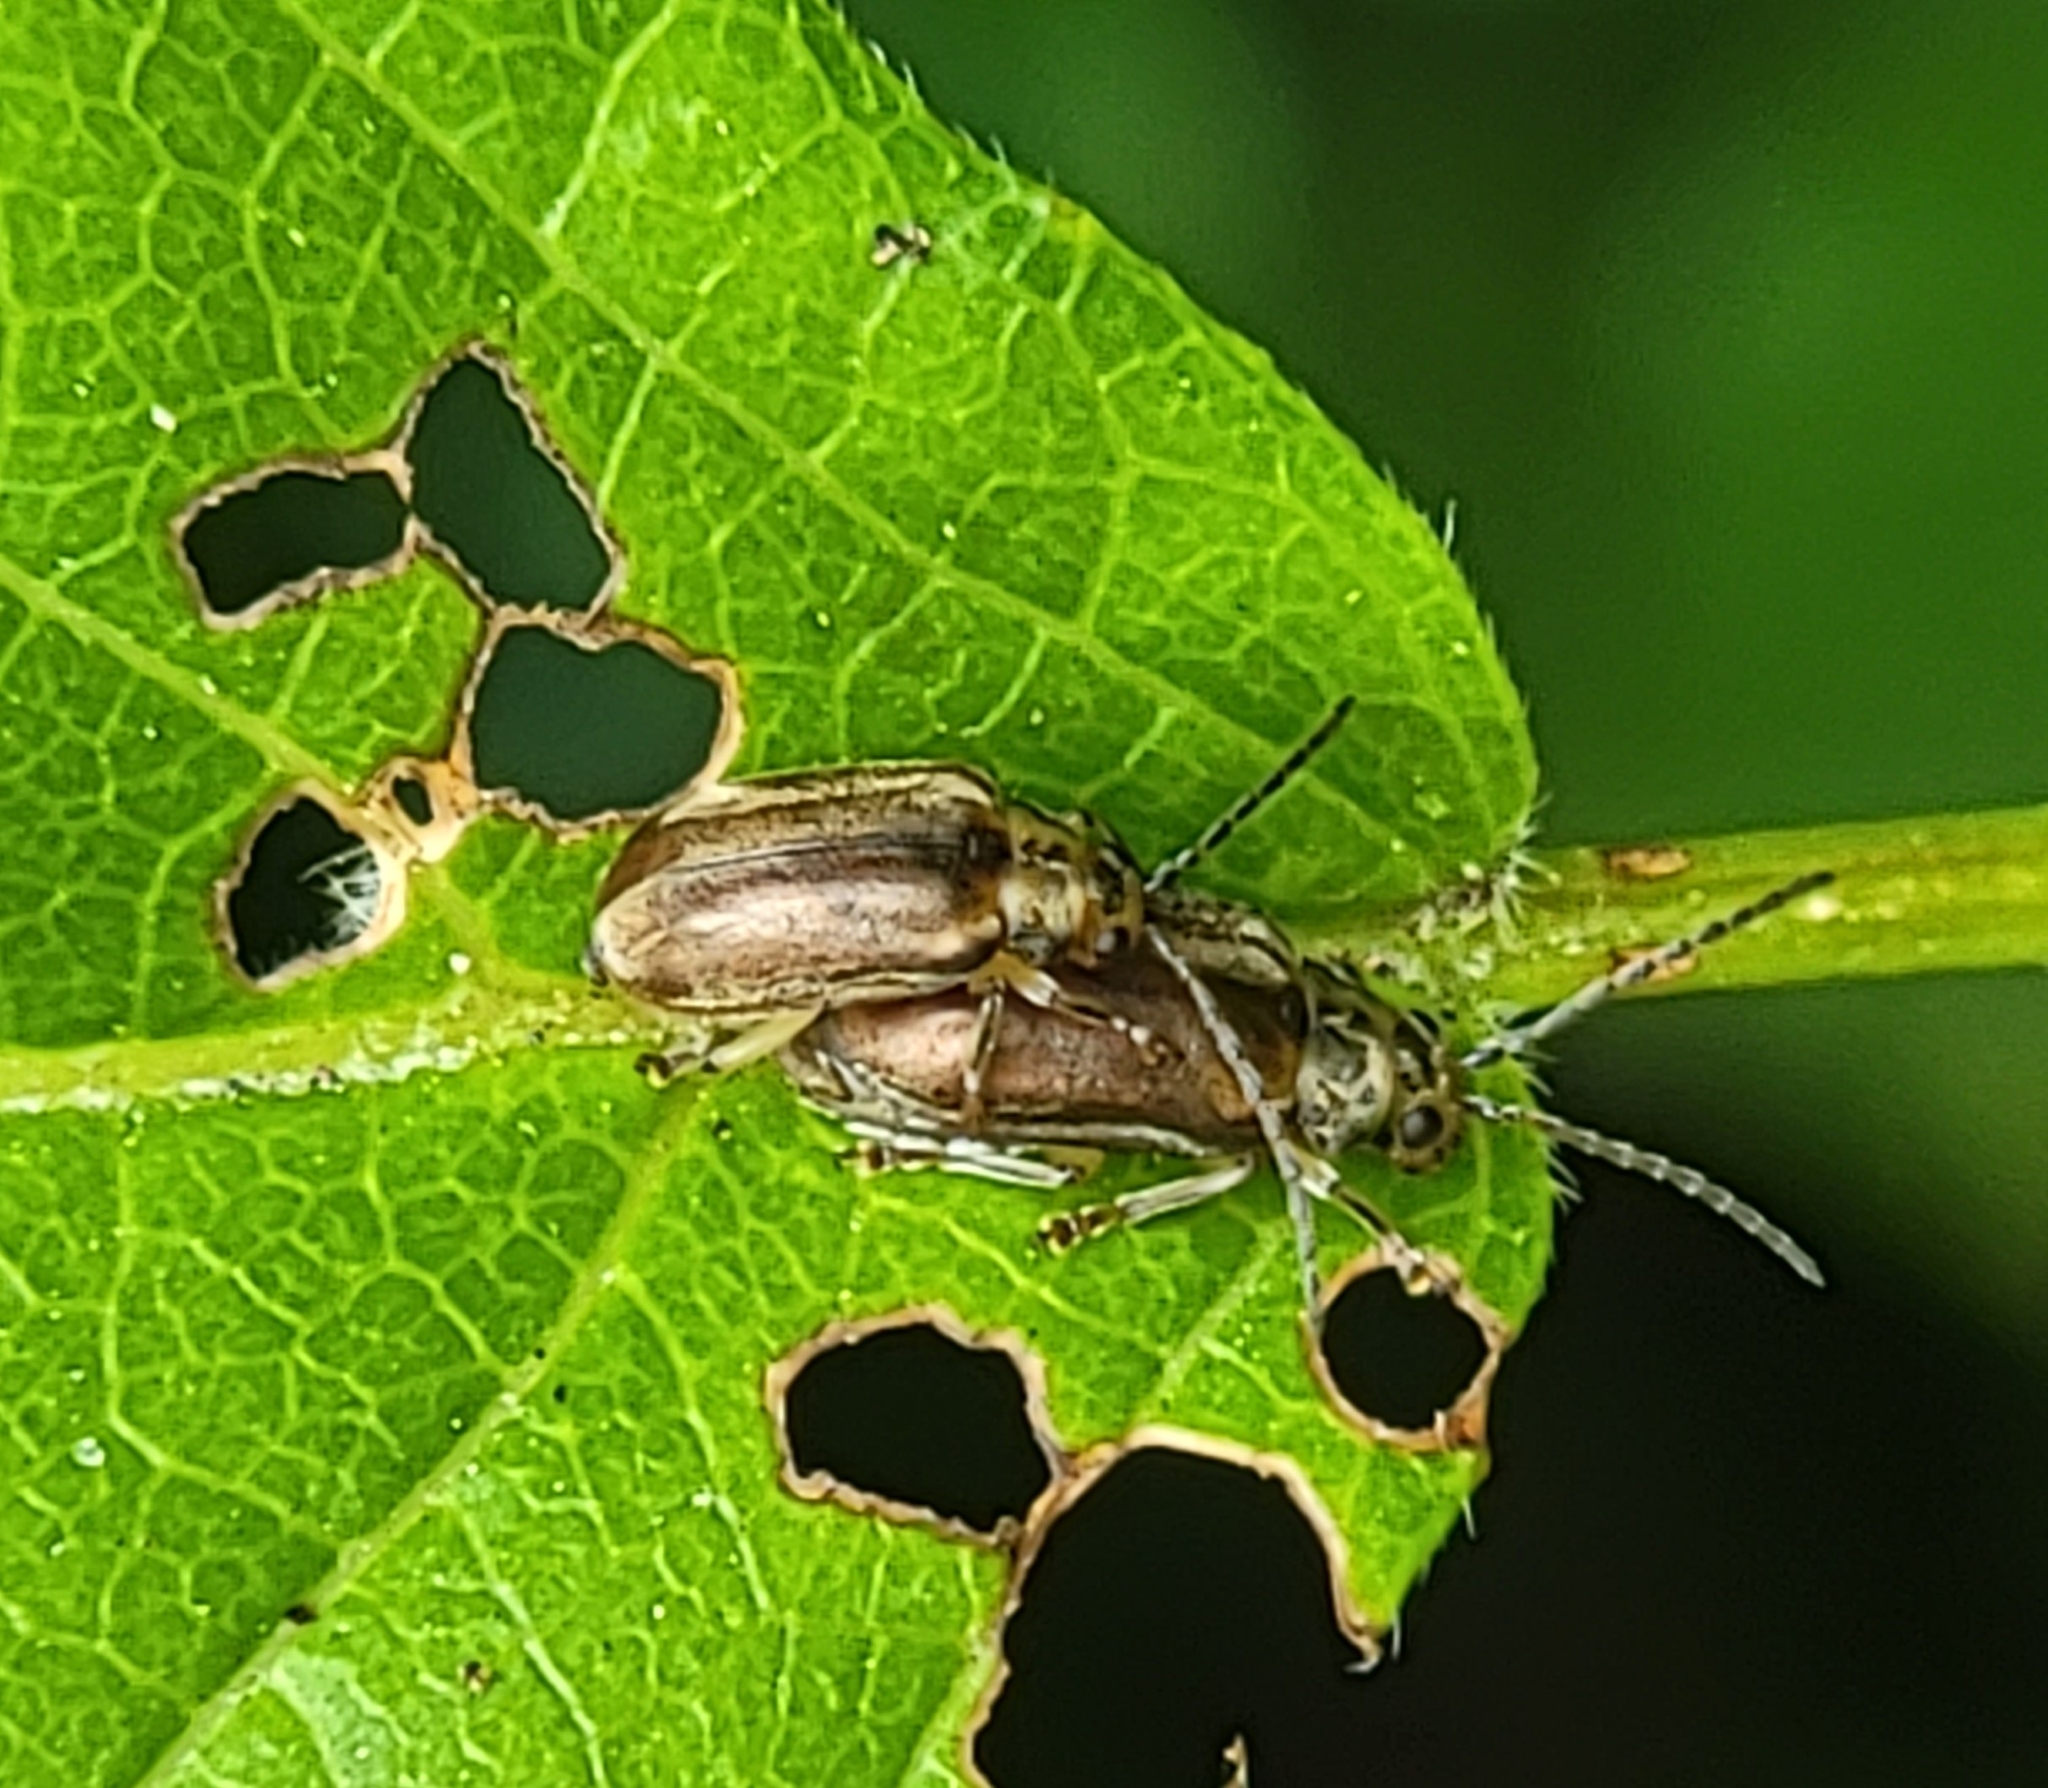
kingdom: Animalia
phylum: Arthropoda
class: Insecta
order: Coleoptera
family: Chrysomelidae
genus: Pyrrhalta
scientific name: Pyrrhalta viburni
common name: Guelder-rose leaf beetle
